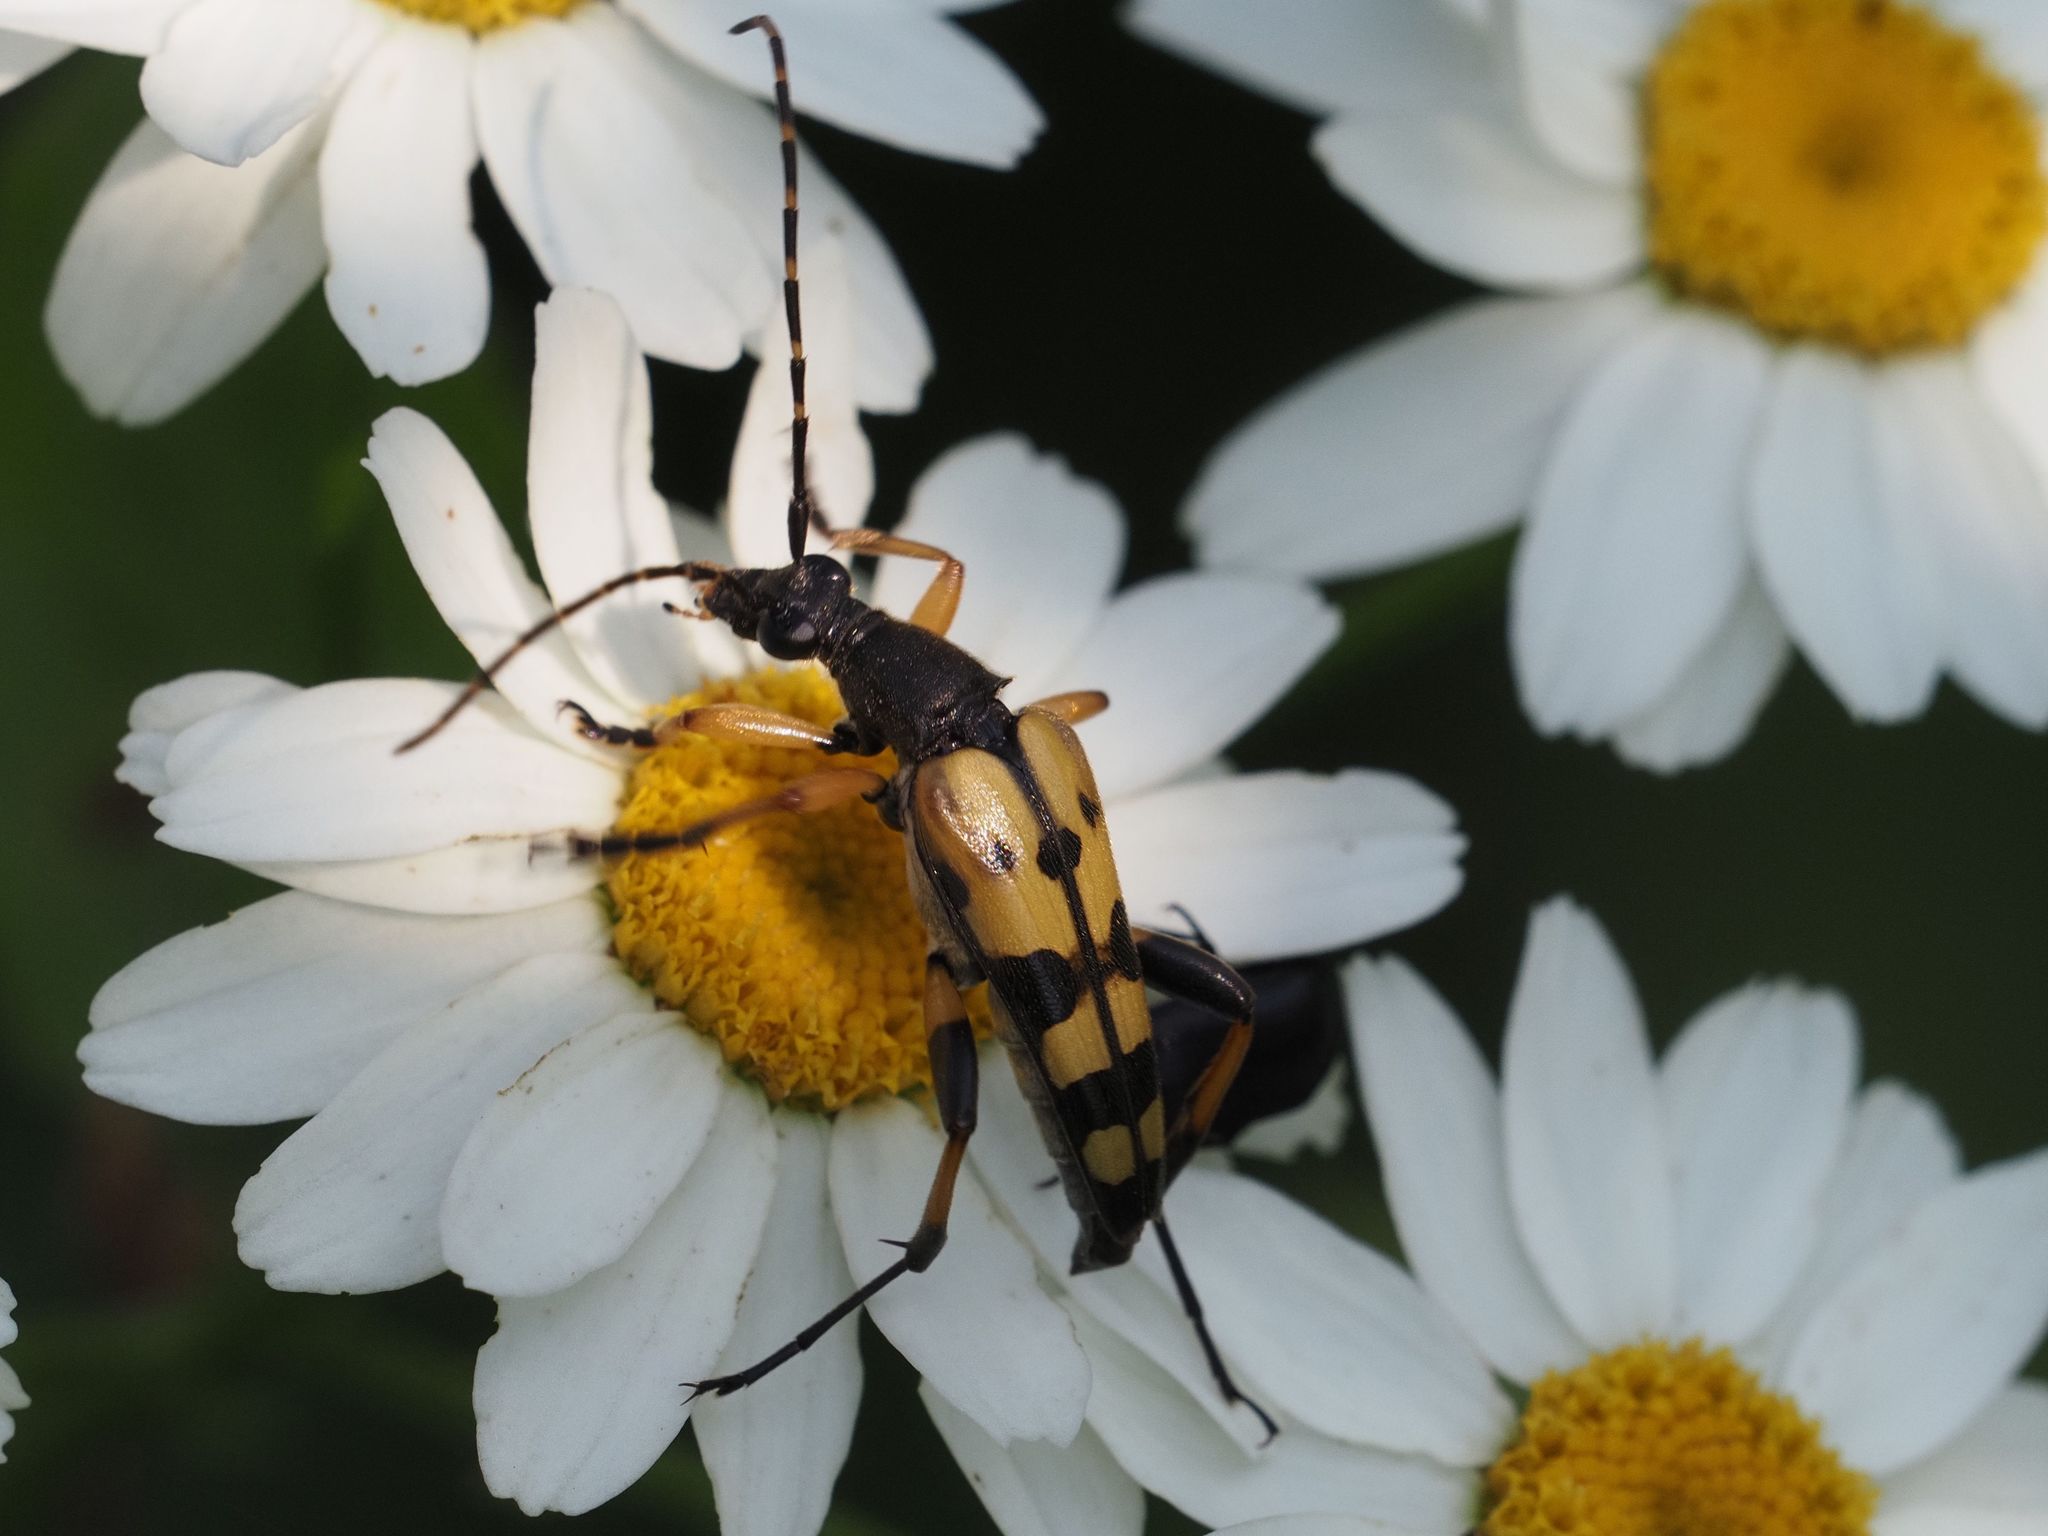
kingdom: Animalia
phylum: Arthropoda
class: Insecta
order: Coleoptera
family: Cerambycidae
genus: Rutpela
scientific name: Rutpela maculata
